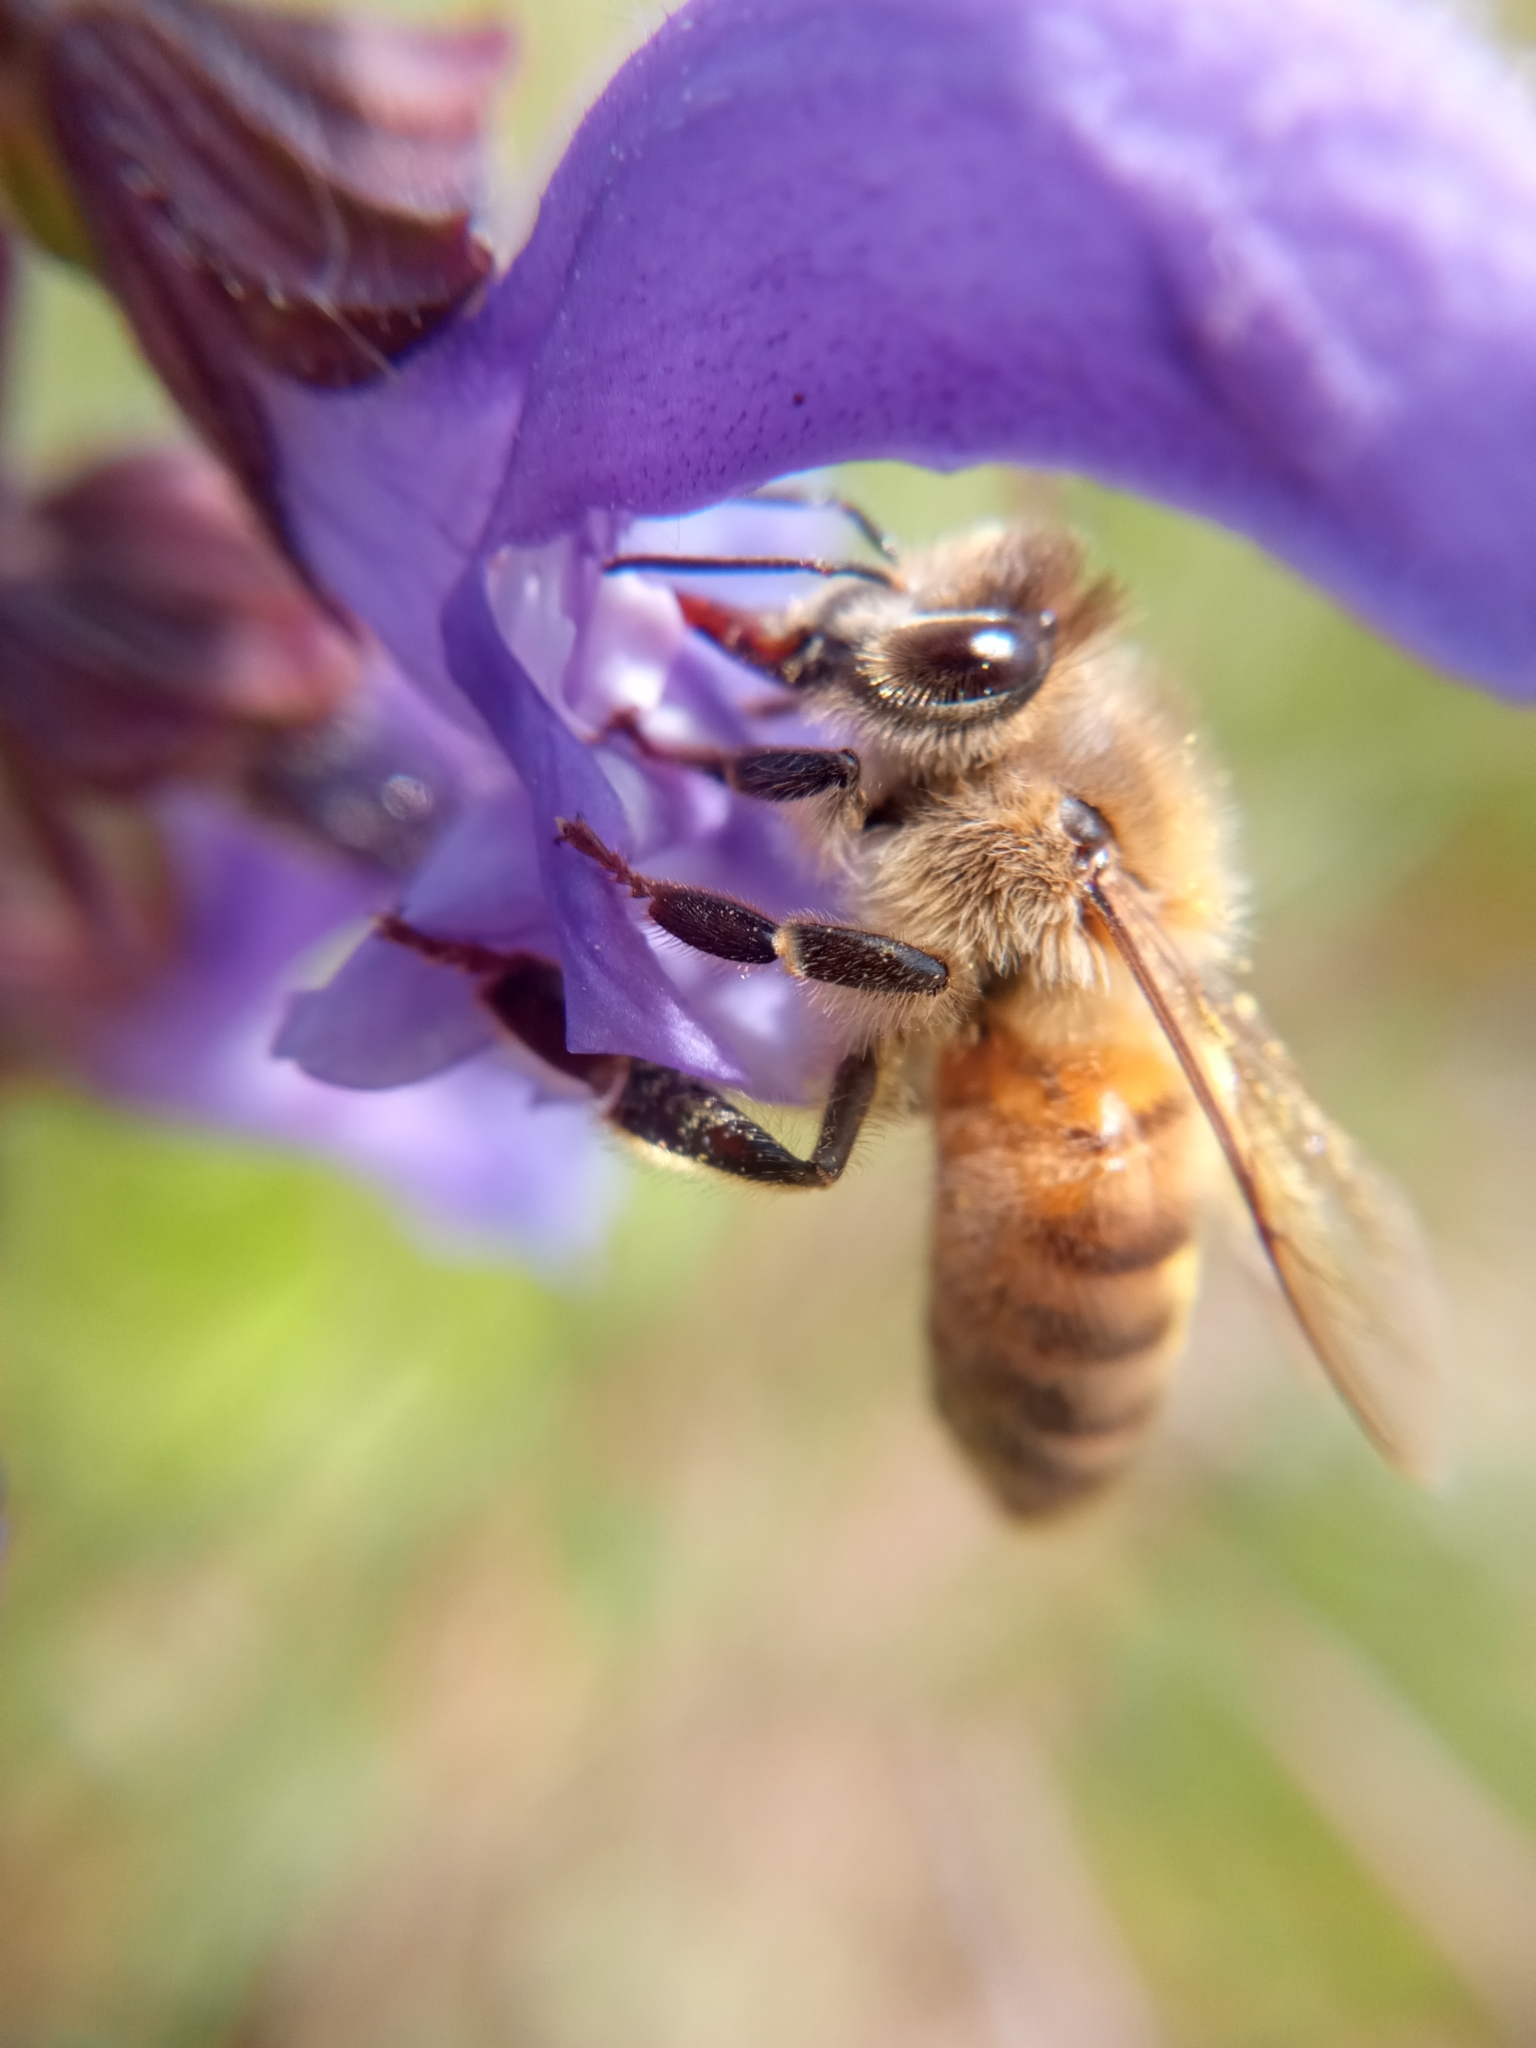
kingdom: Animalia
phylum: Arthropoda
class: Insecta
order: Hymenoptera
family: Apidae
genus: Apis
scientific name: Apis mellifera
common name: Honey bee
